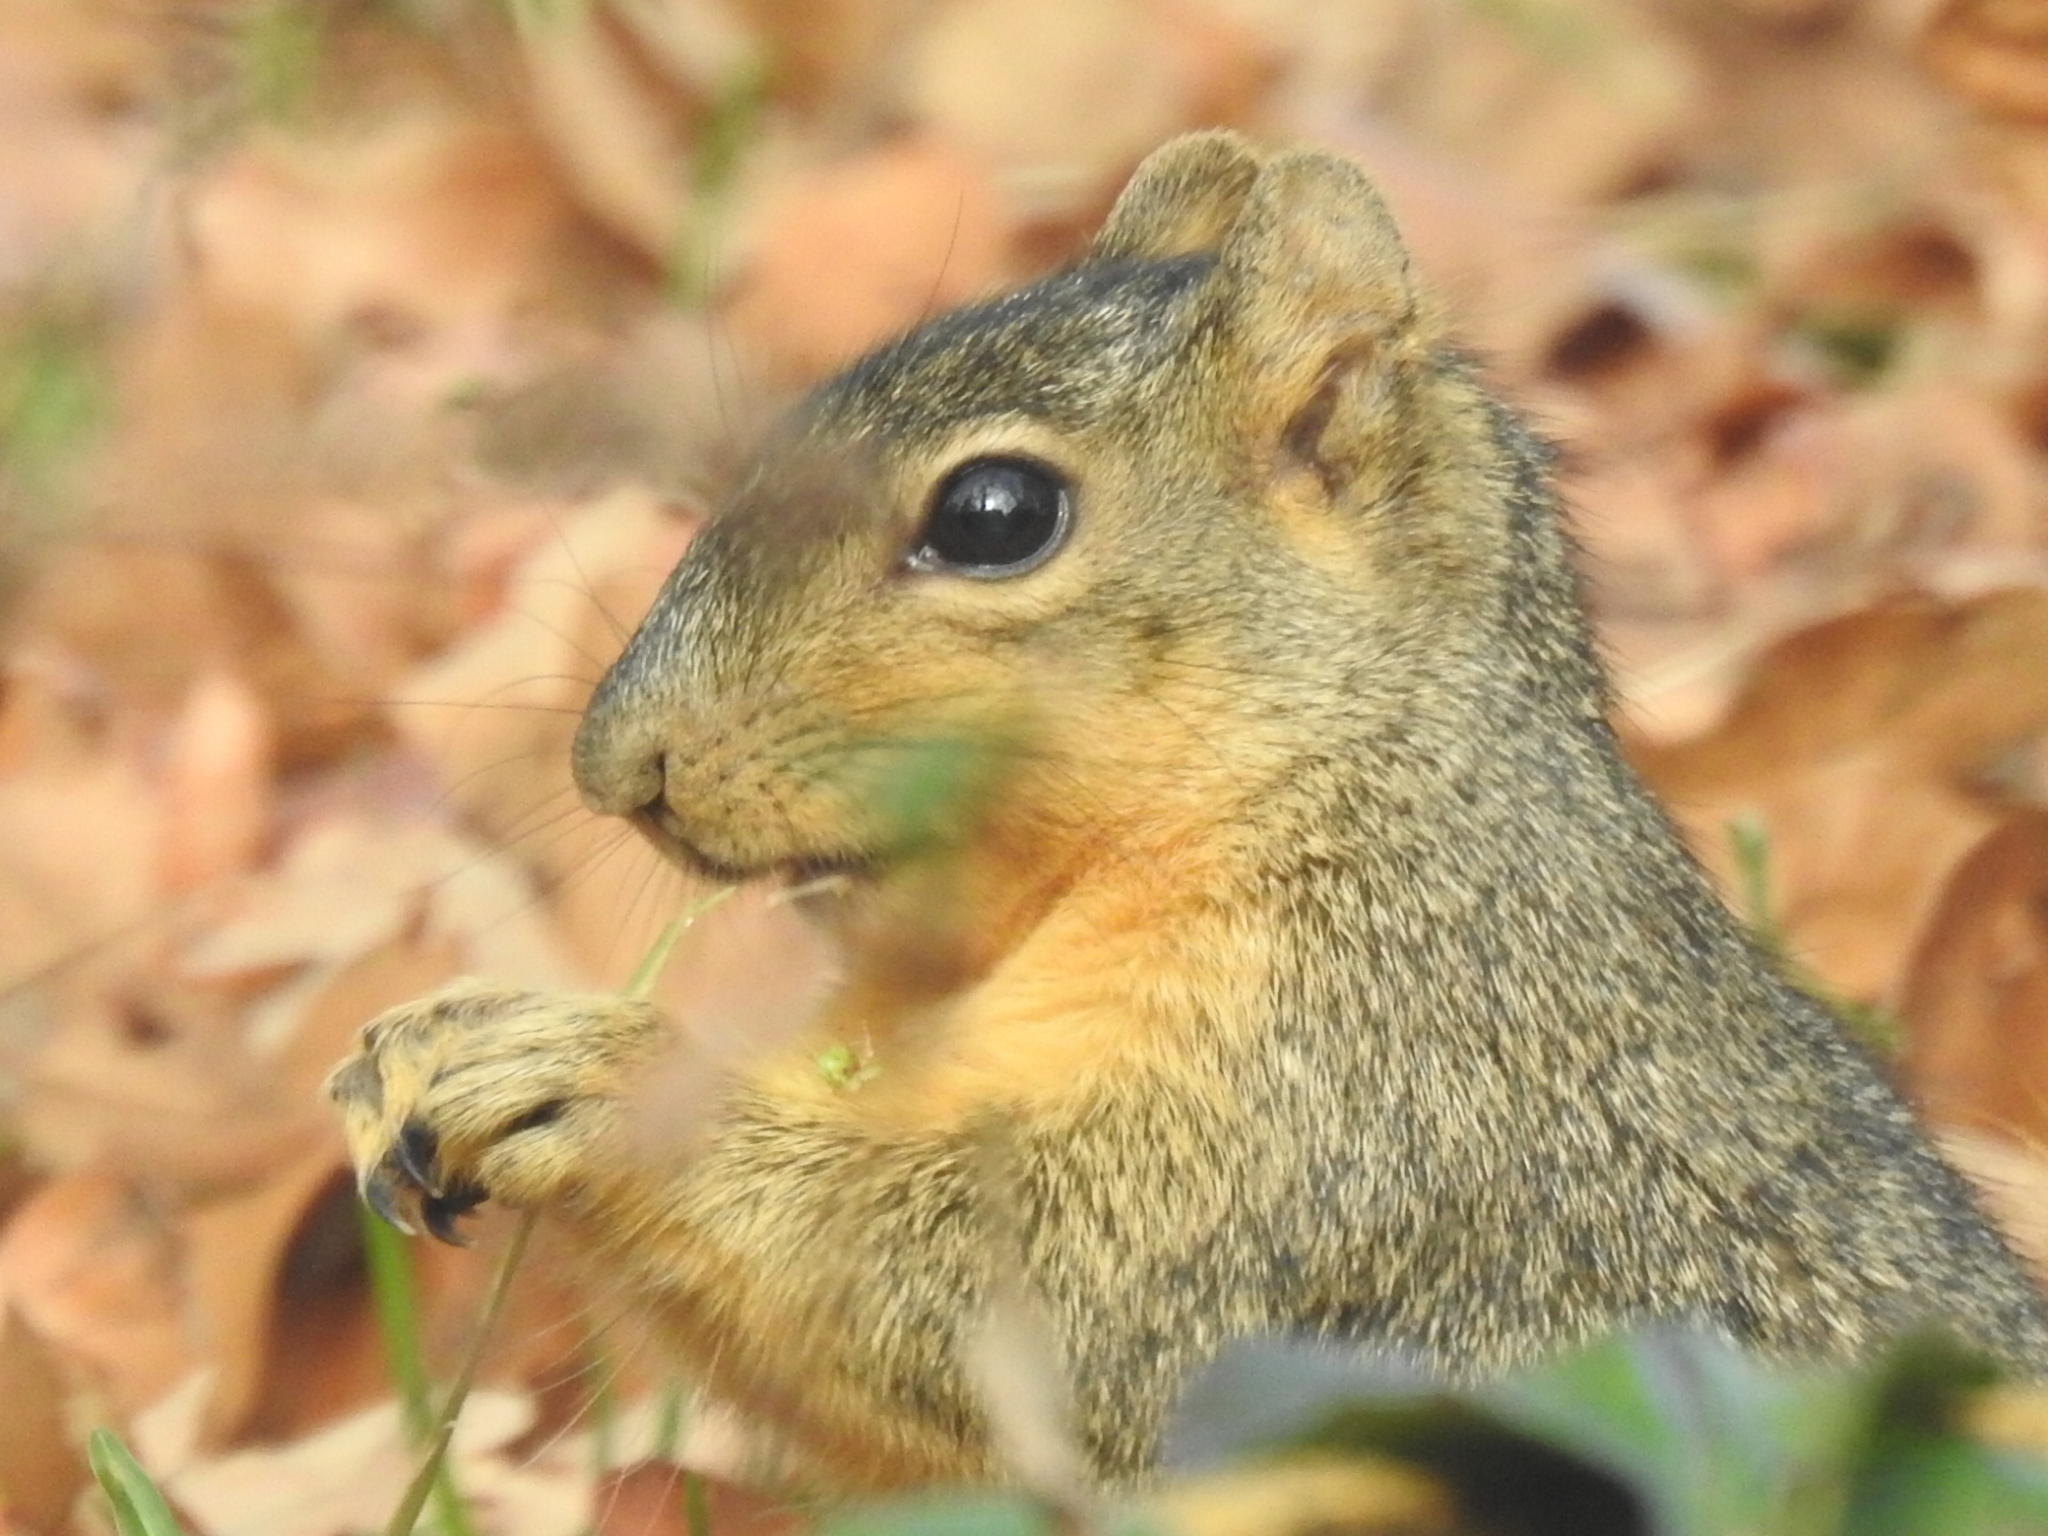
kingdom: Animalia
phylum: Chordata
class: Mammalia
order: Rodentia
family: Sciuridae
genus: Sciurus
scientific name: Sciurus niger
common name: Fox squirrel
